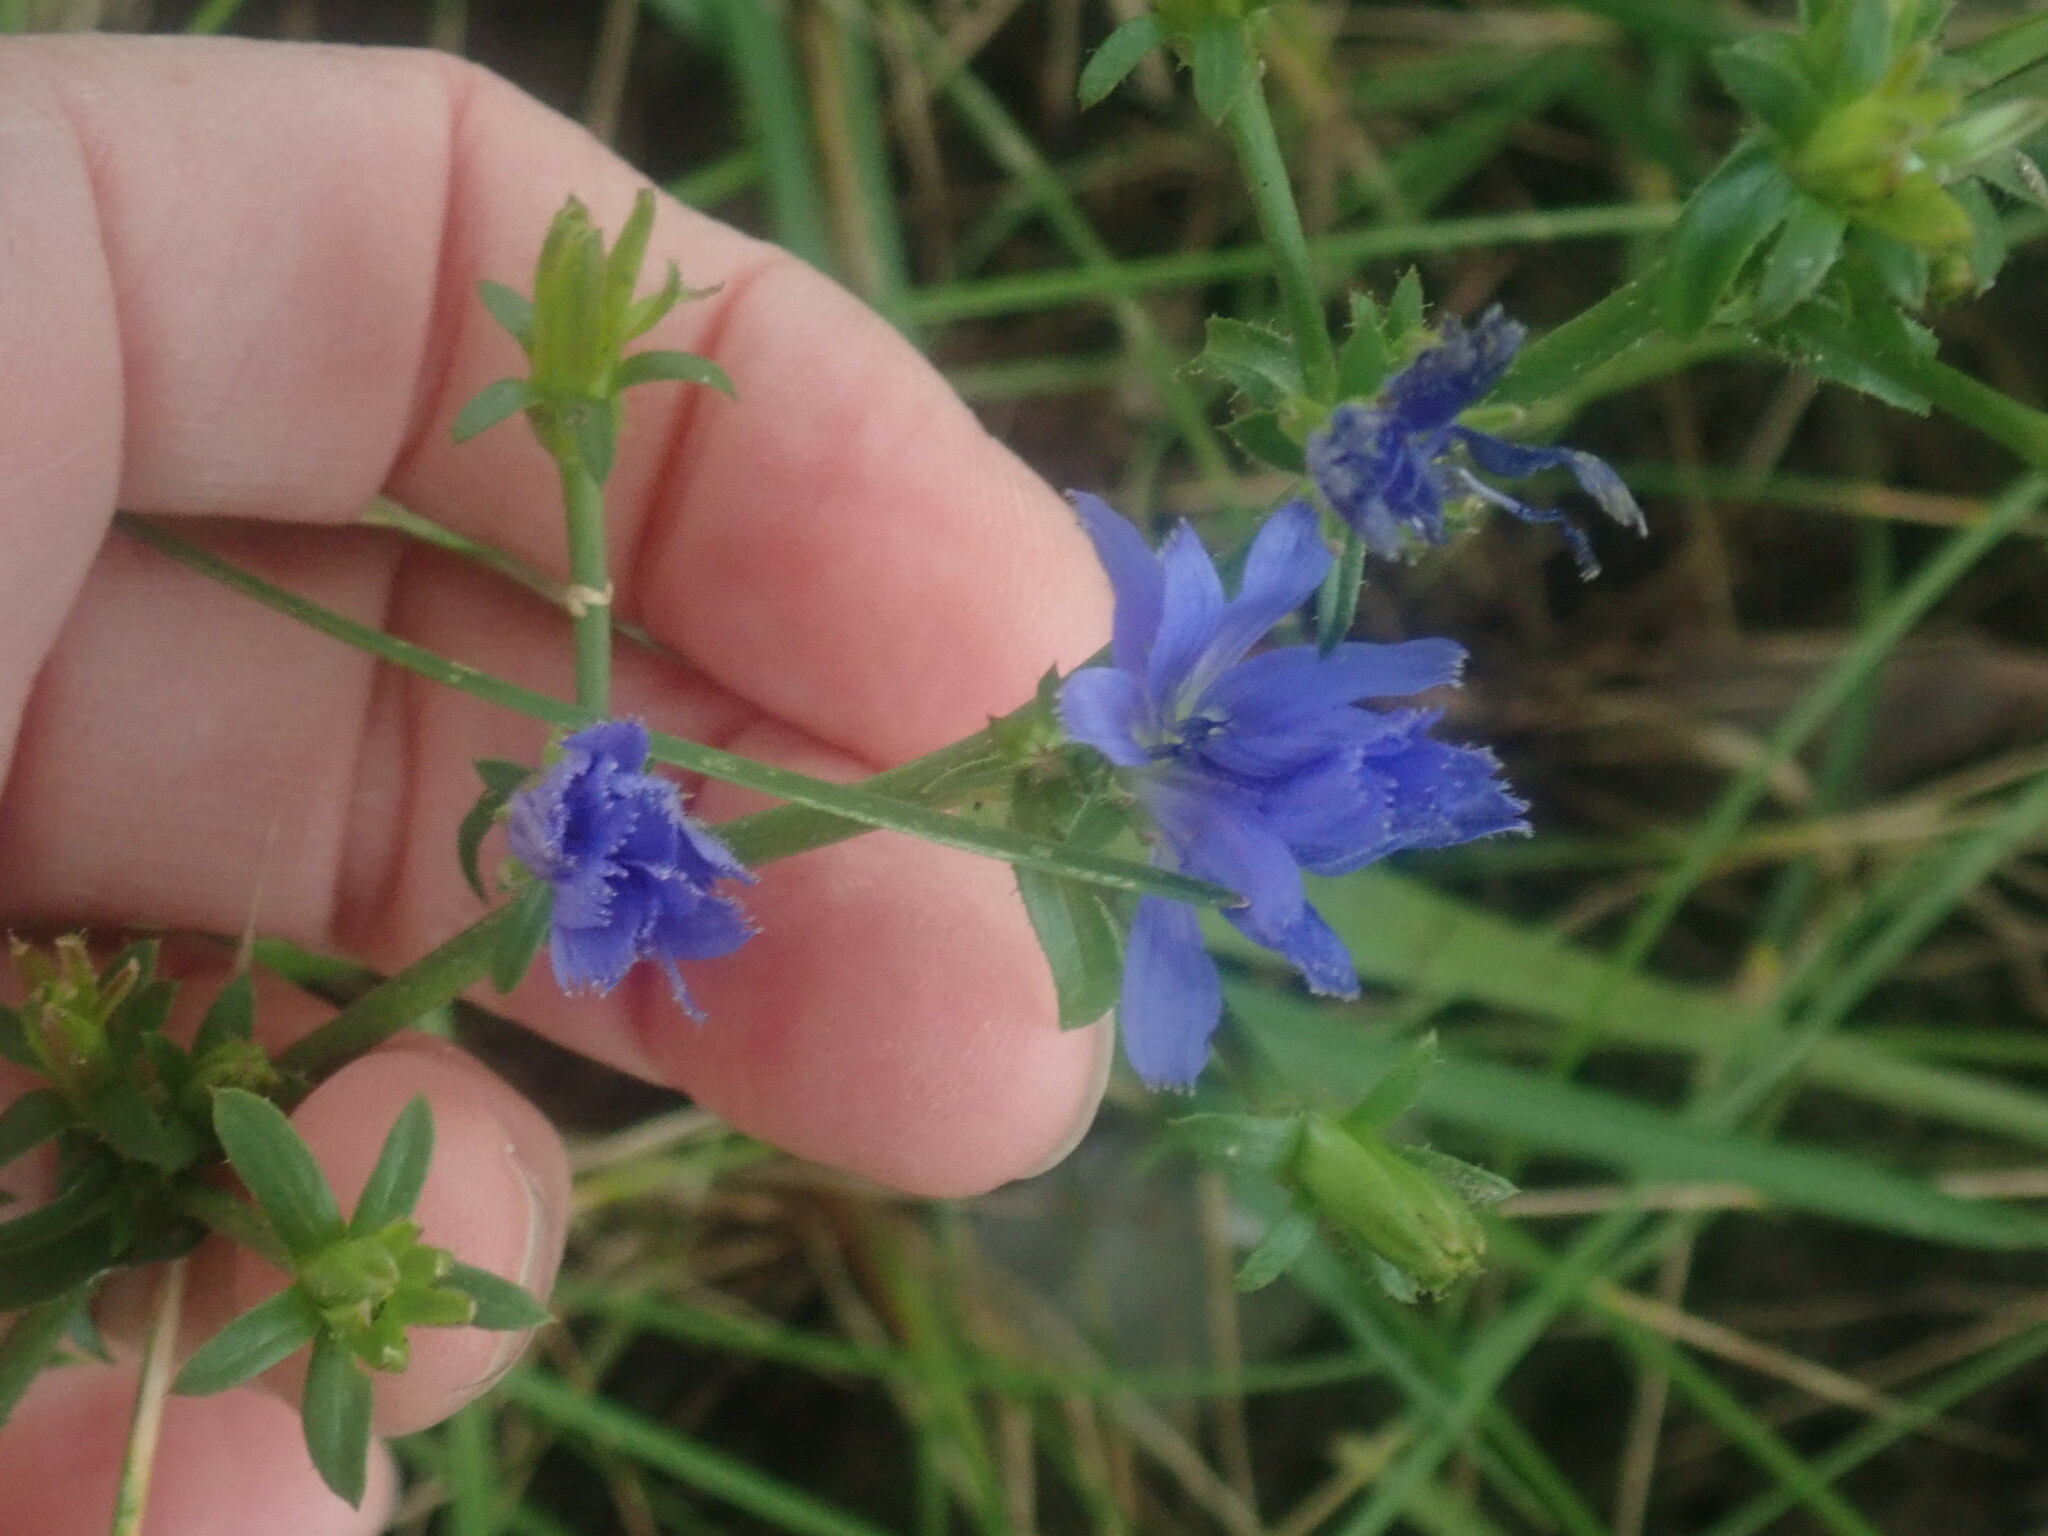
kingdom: Plantae
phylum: Tracheophyta
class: Magnoliopsida
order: Asterales
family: Asteraceae
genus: Cichorium
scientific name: Cichorium intybus
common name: Chicory
